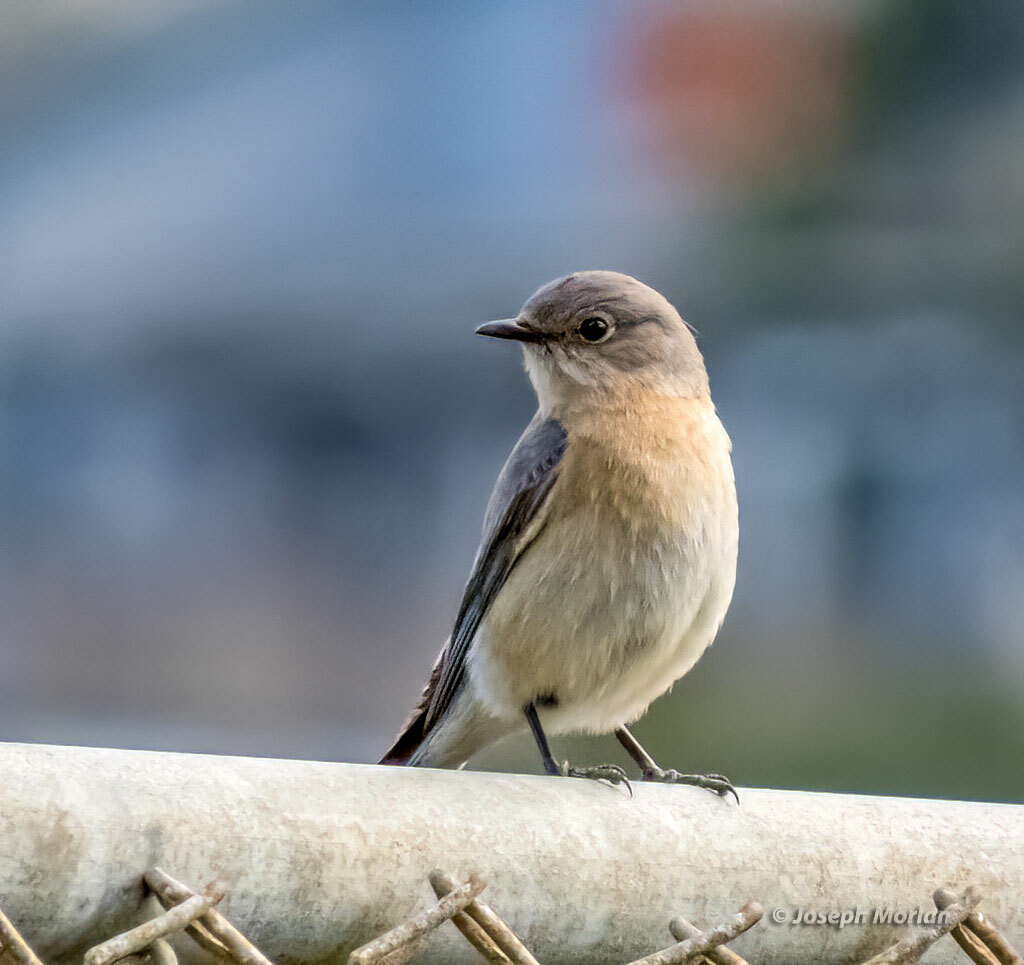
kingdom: Animalia
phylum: Chordata
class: Aves
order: Passeriformes
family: Turdidae
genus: Sialia
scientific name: Sialia mexicana
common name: Western bluebird
